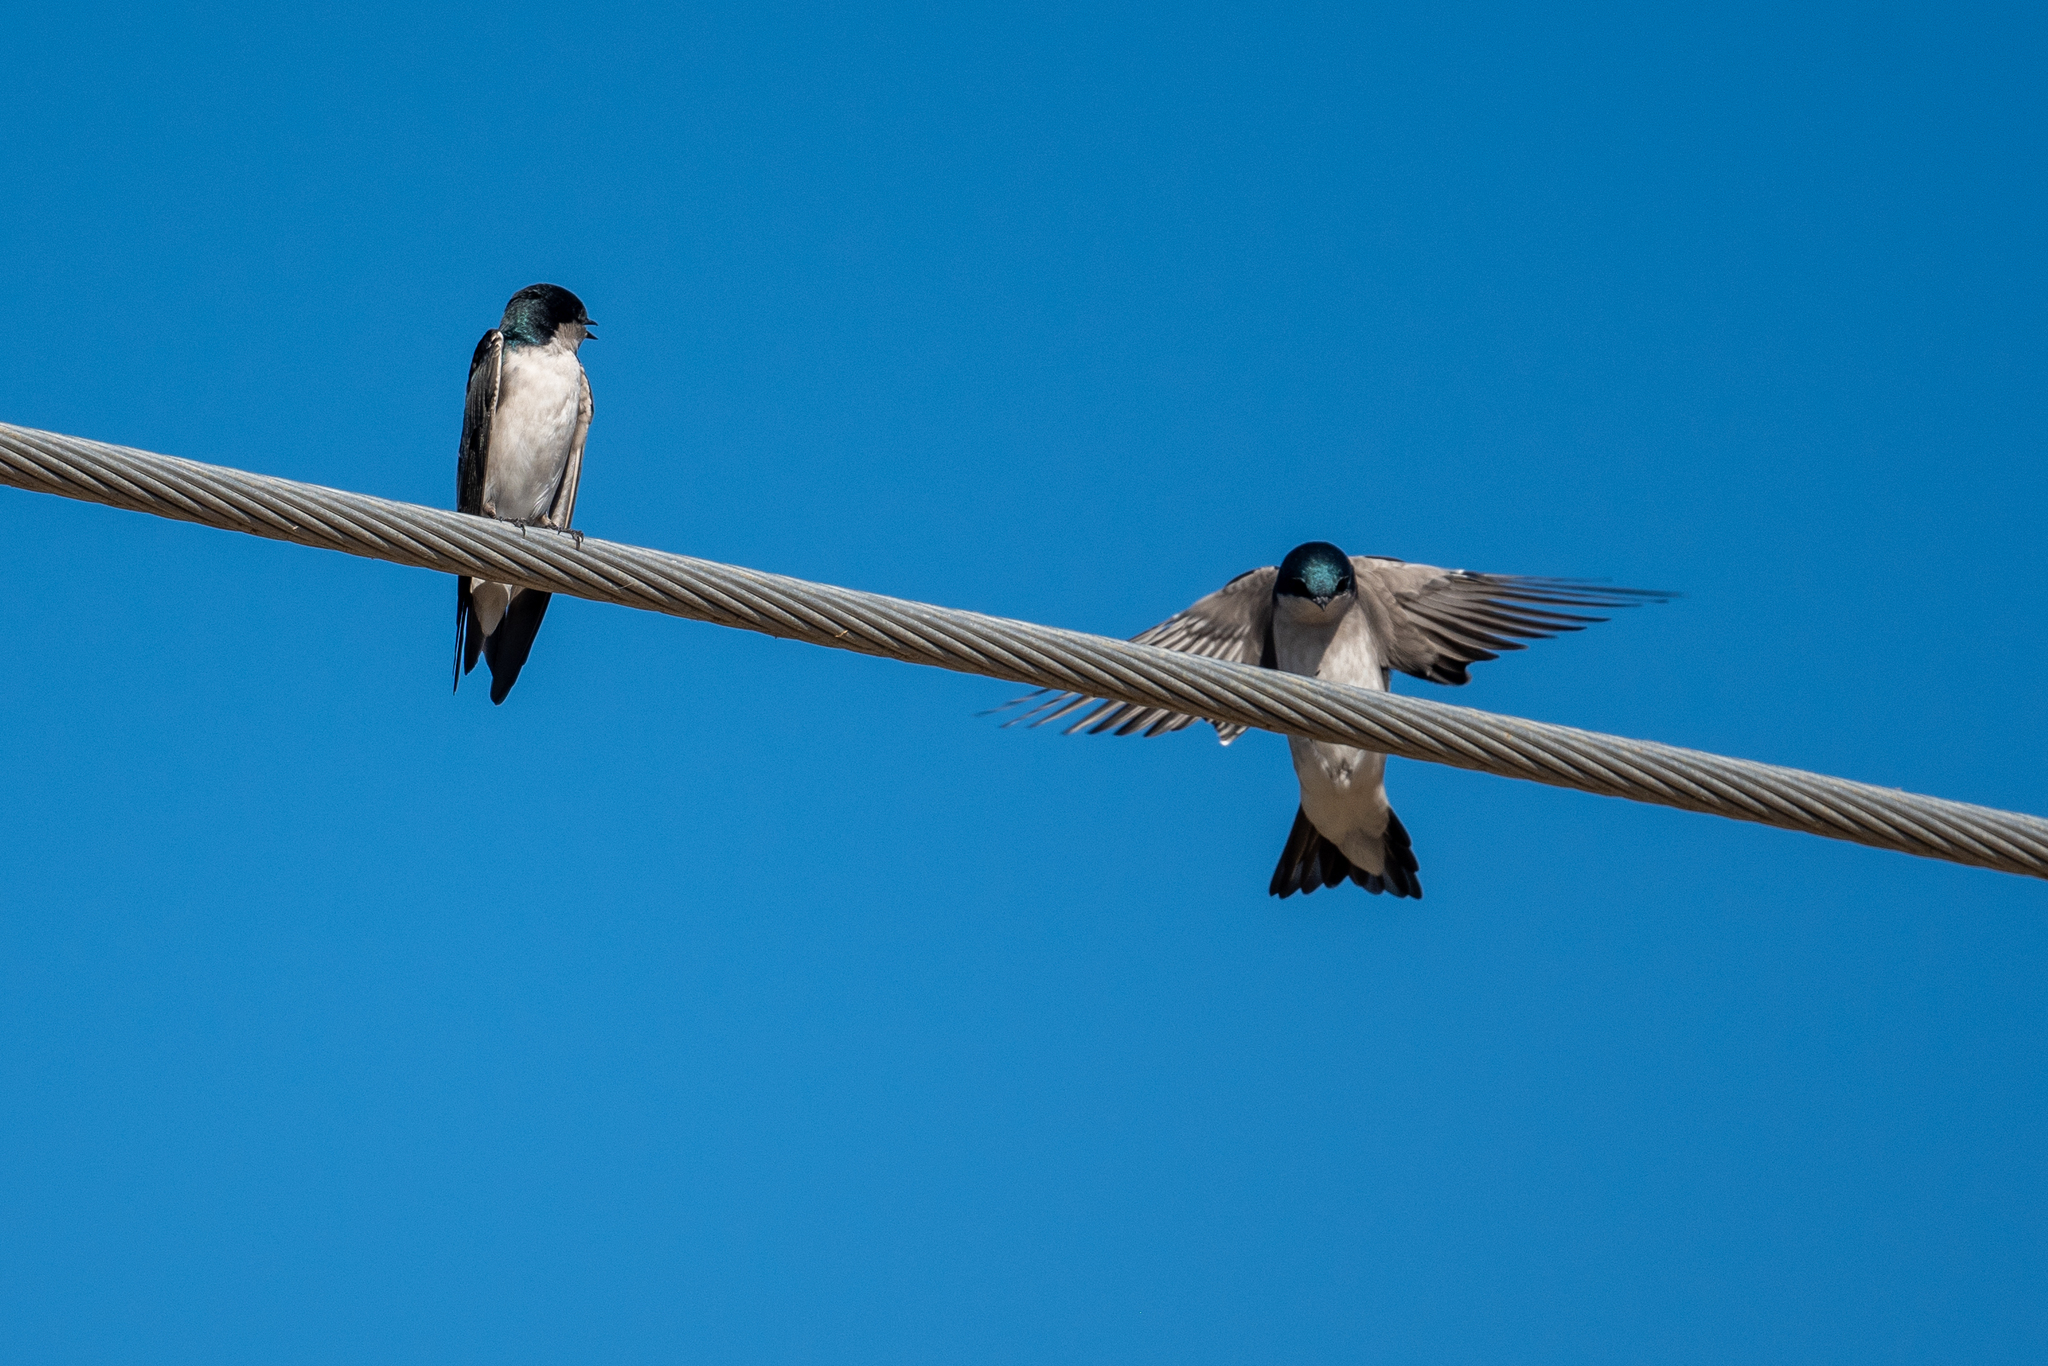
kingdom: Animalia
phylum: Chordata
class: Aves
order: Passeriformes
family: Hirundinidae
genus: Tachycineta
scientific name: Tachycineta bicolor
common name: Tree swallow
